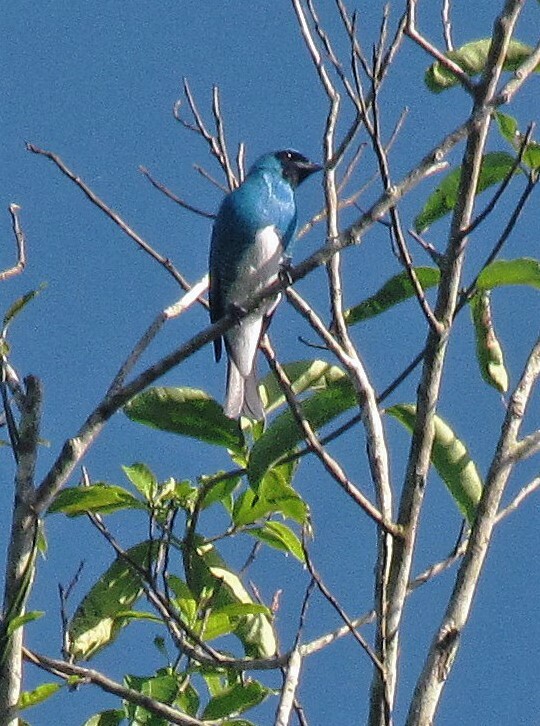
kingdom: Animalia
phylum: Chordata
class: Aves
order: Passeriformes
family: Thraupidae
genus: Tersina
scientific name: Tersina viridis
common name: Swallow tanager
